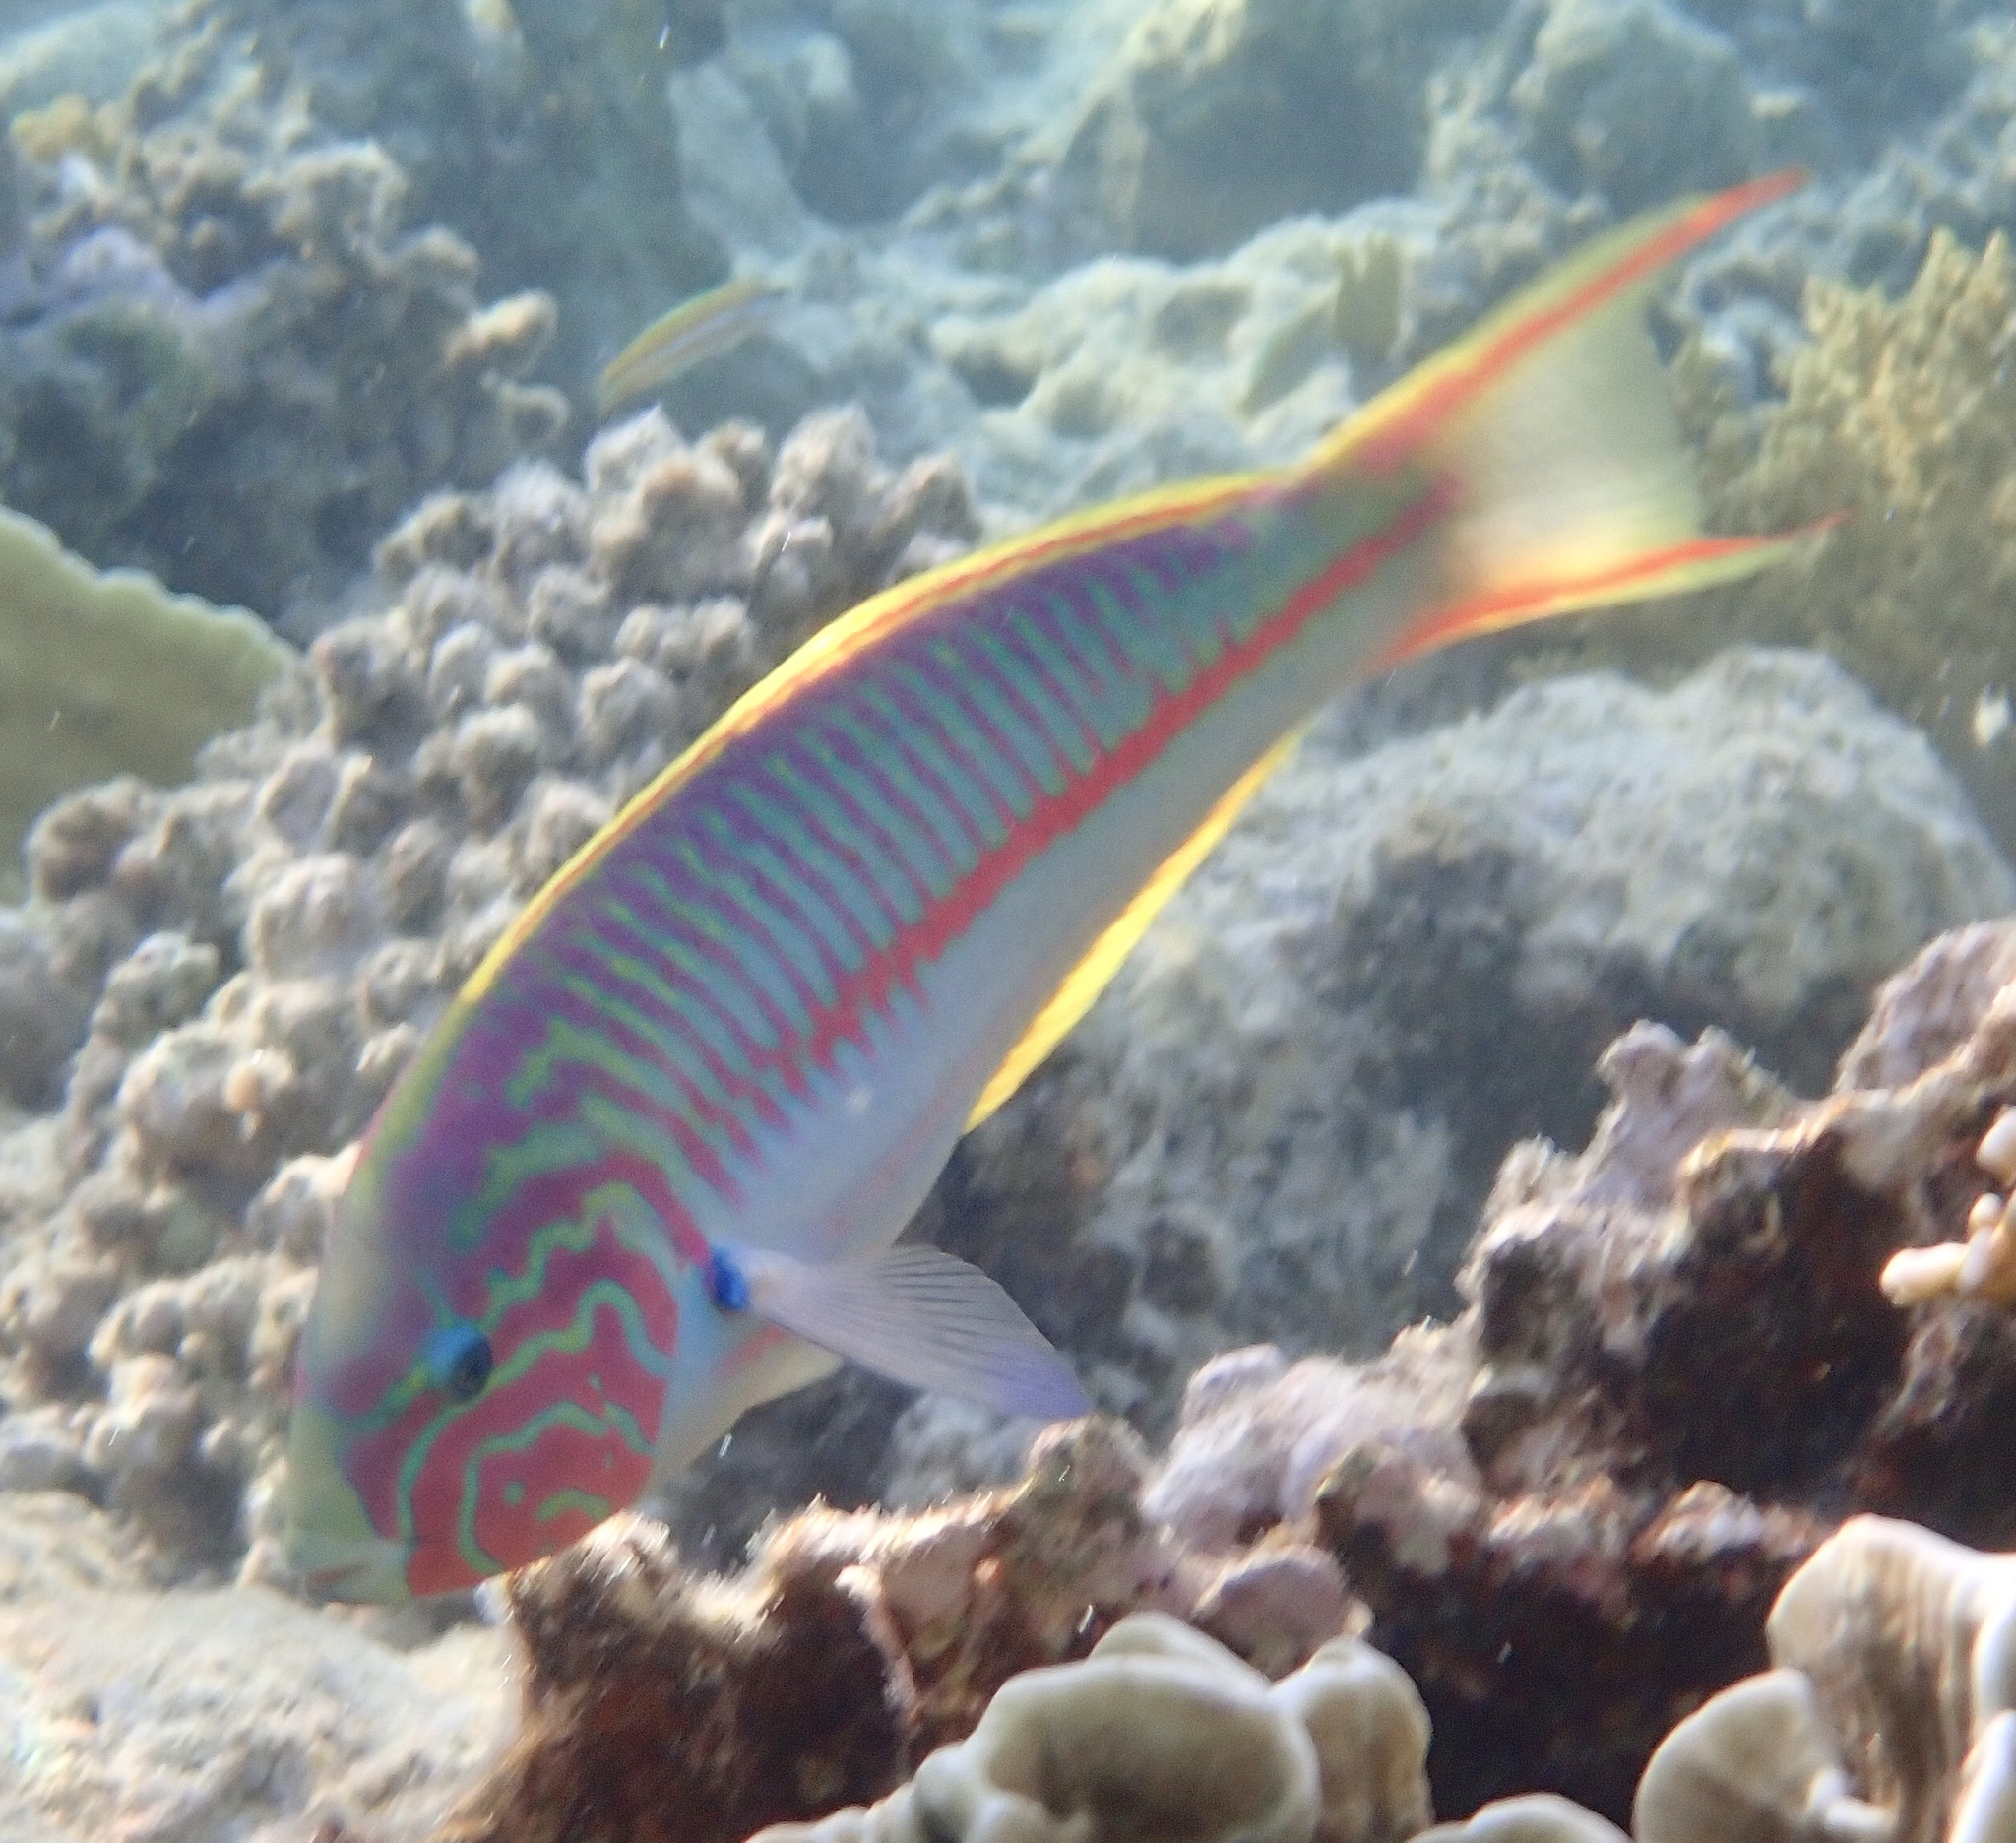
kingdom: Animalia
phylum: Chordata
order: Perciformes
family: Labridae
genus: Thalassoma
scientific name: Thalassoma rueppellii
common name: Klunzinger's wrasse
